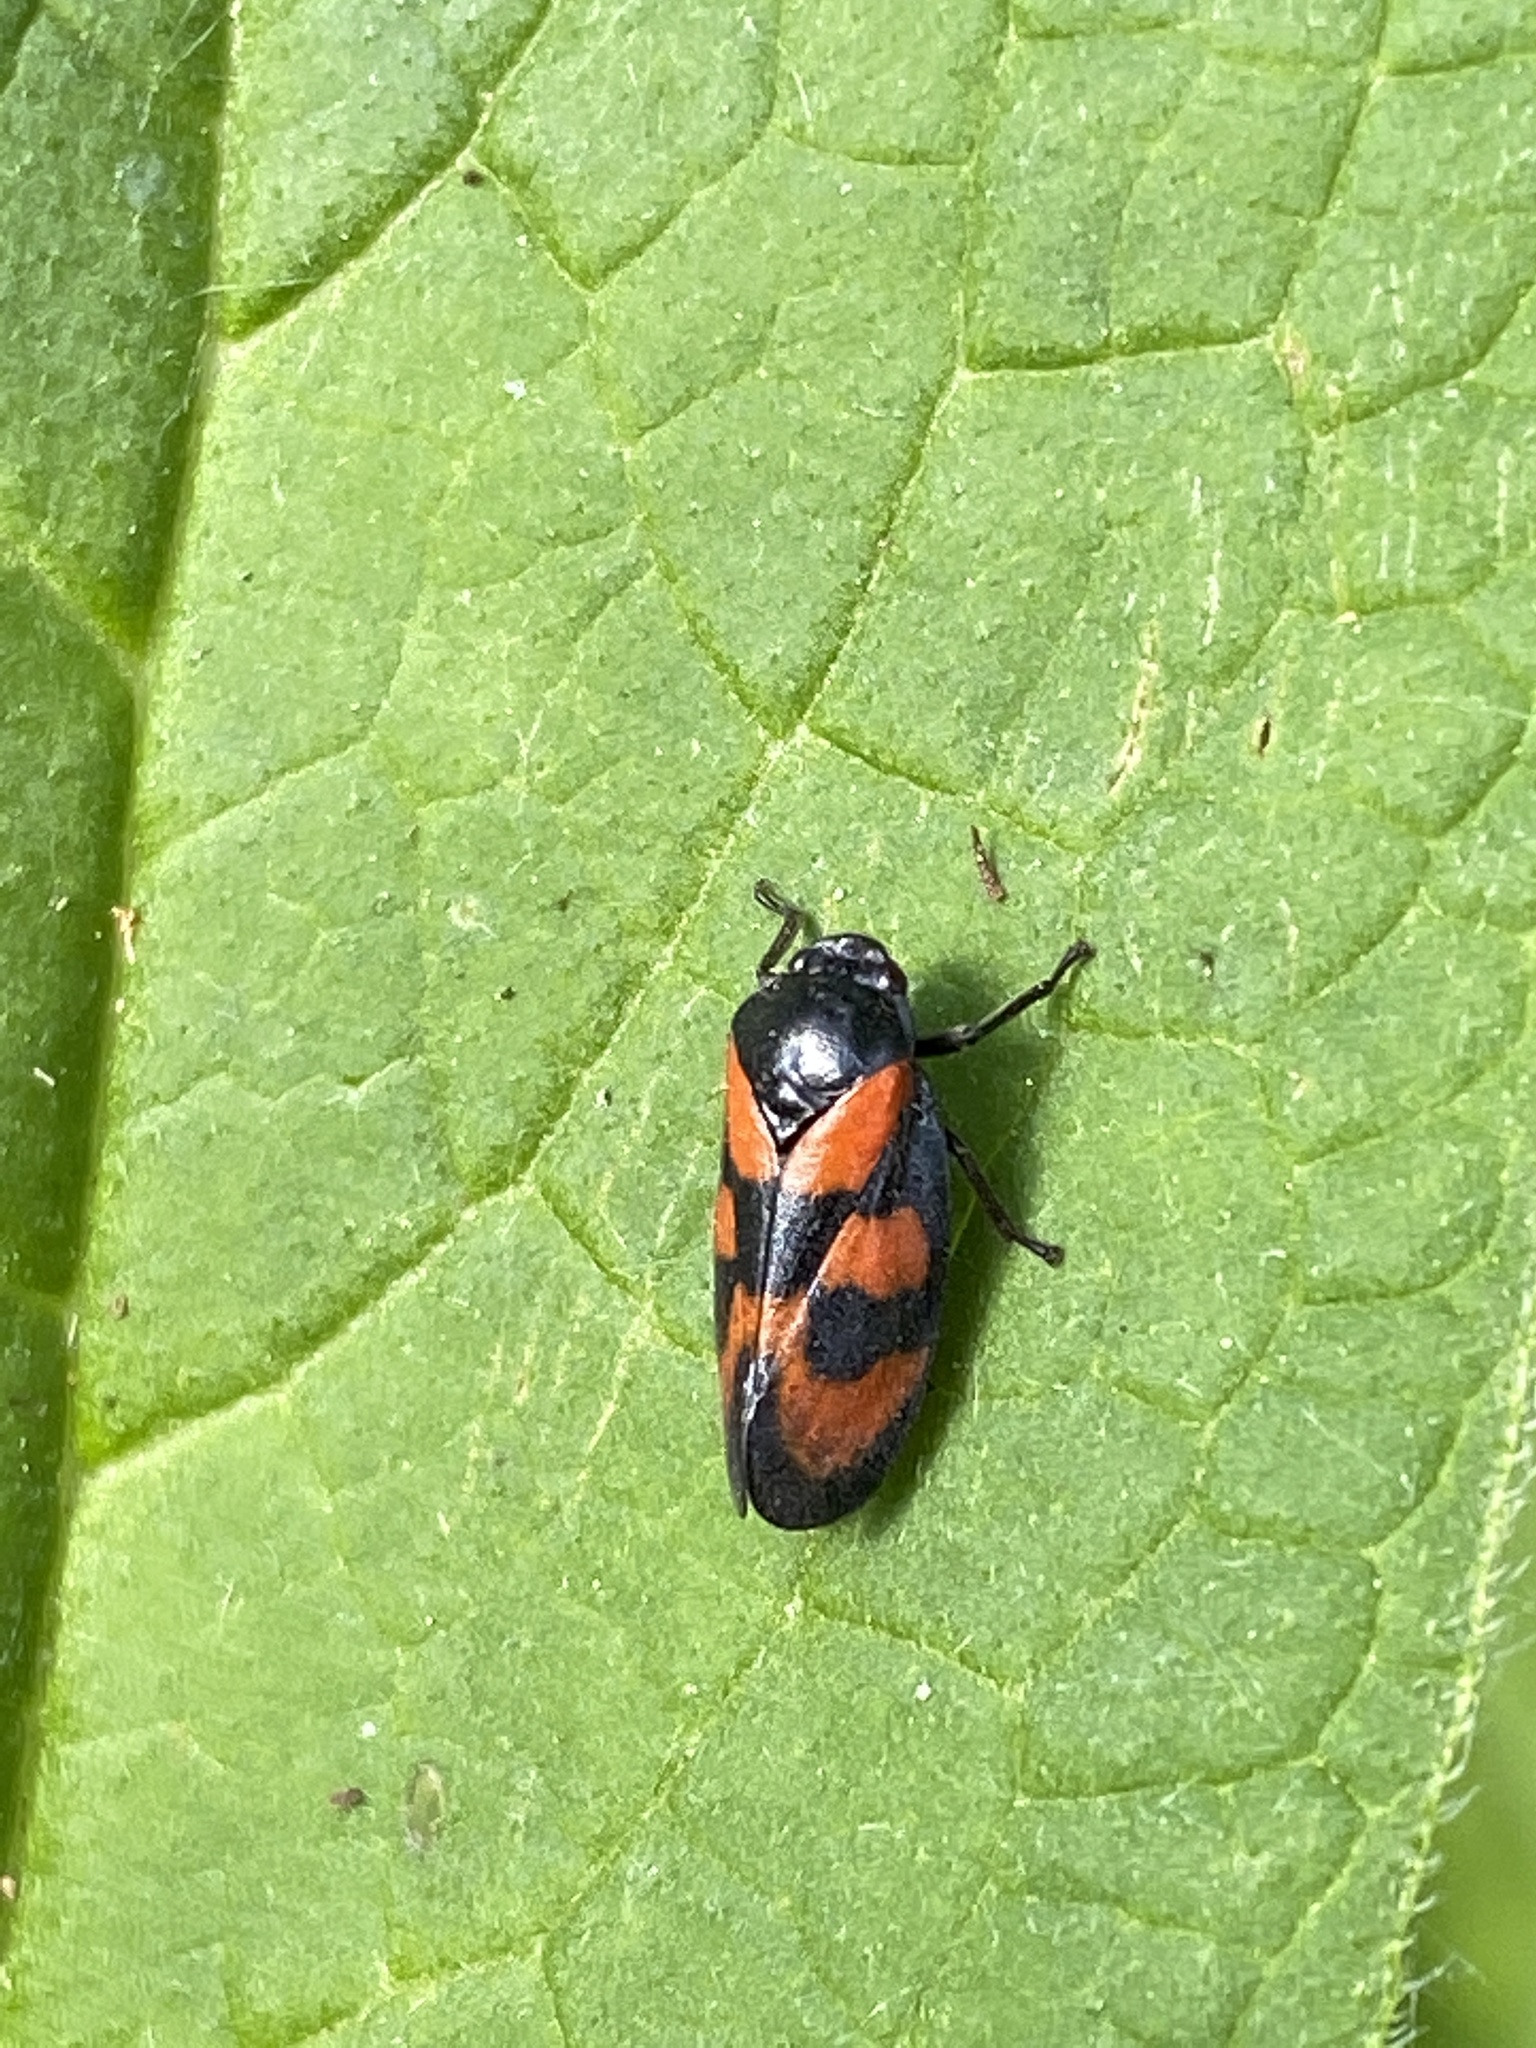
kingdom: Animalia
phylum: Arthropoda
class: Insecta
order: Hemiptera
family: Cercopidae
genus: Cercopis
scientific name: Cercopis vulnerata
